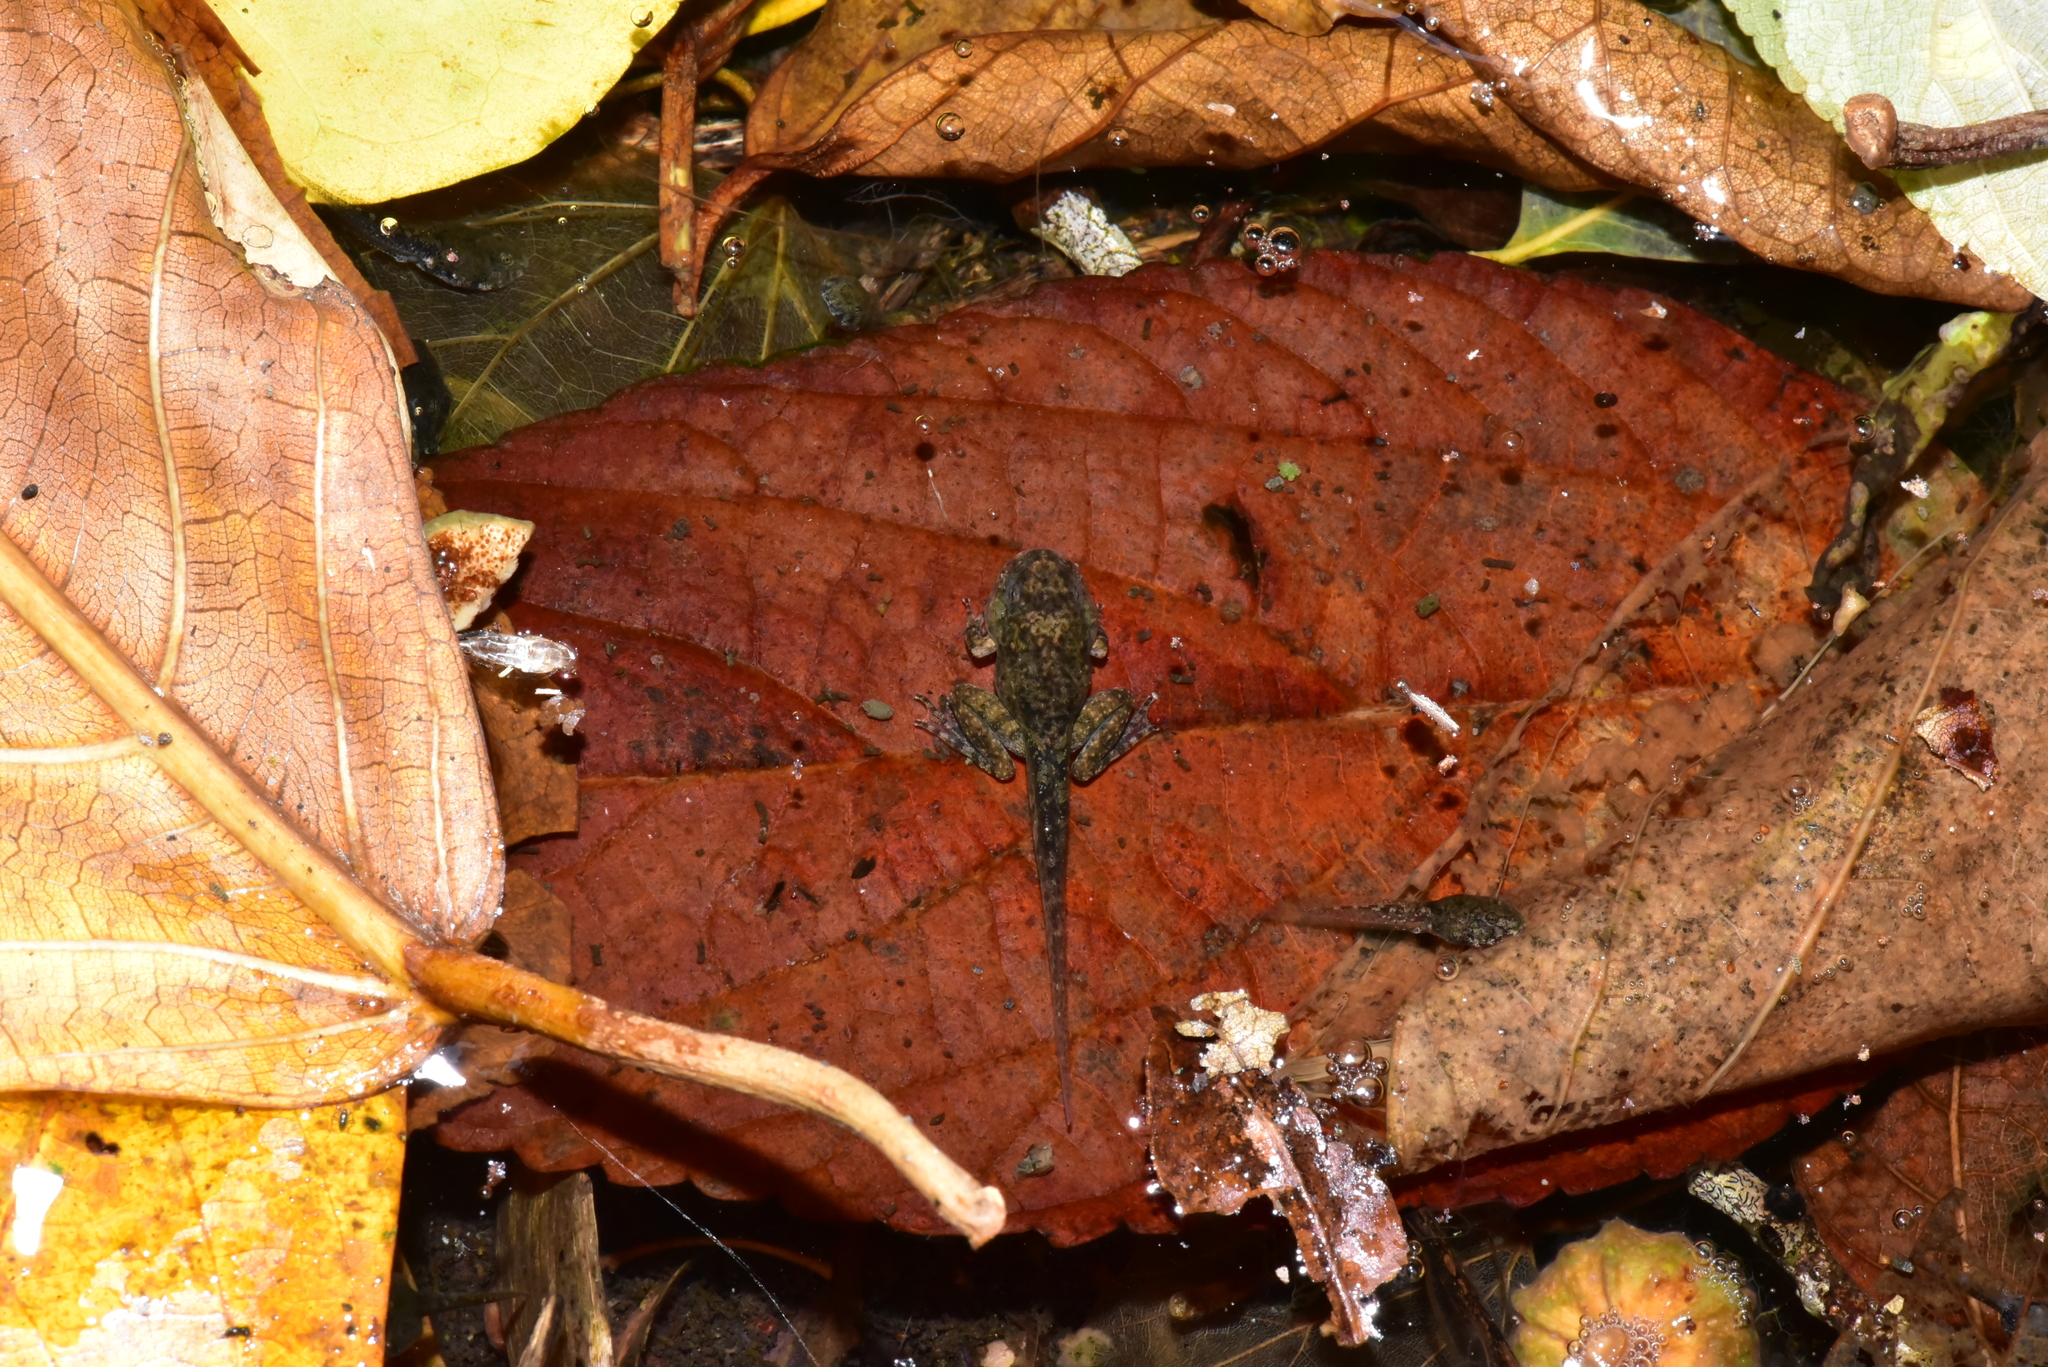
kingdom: Animalia
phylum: Chordata
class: Amphibia
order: Anura
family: Rhacophoridae
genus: Buergeria
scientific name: Buergeria otai
